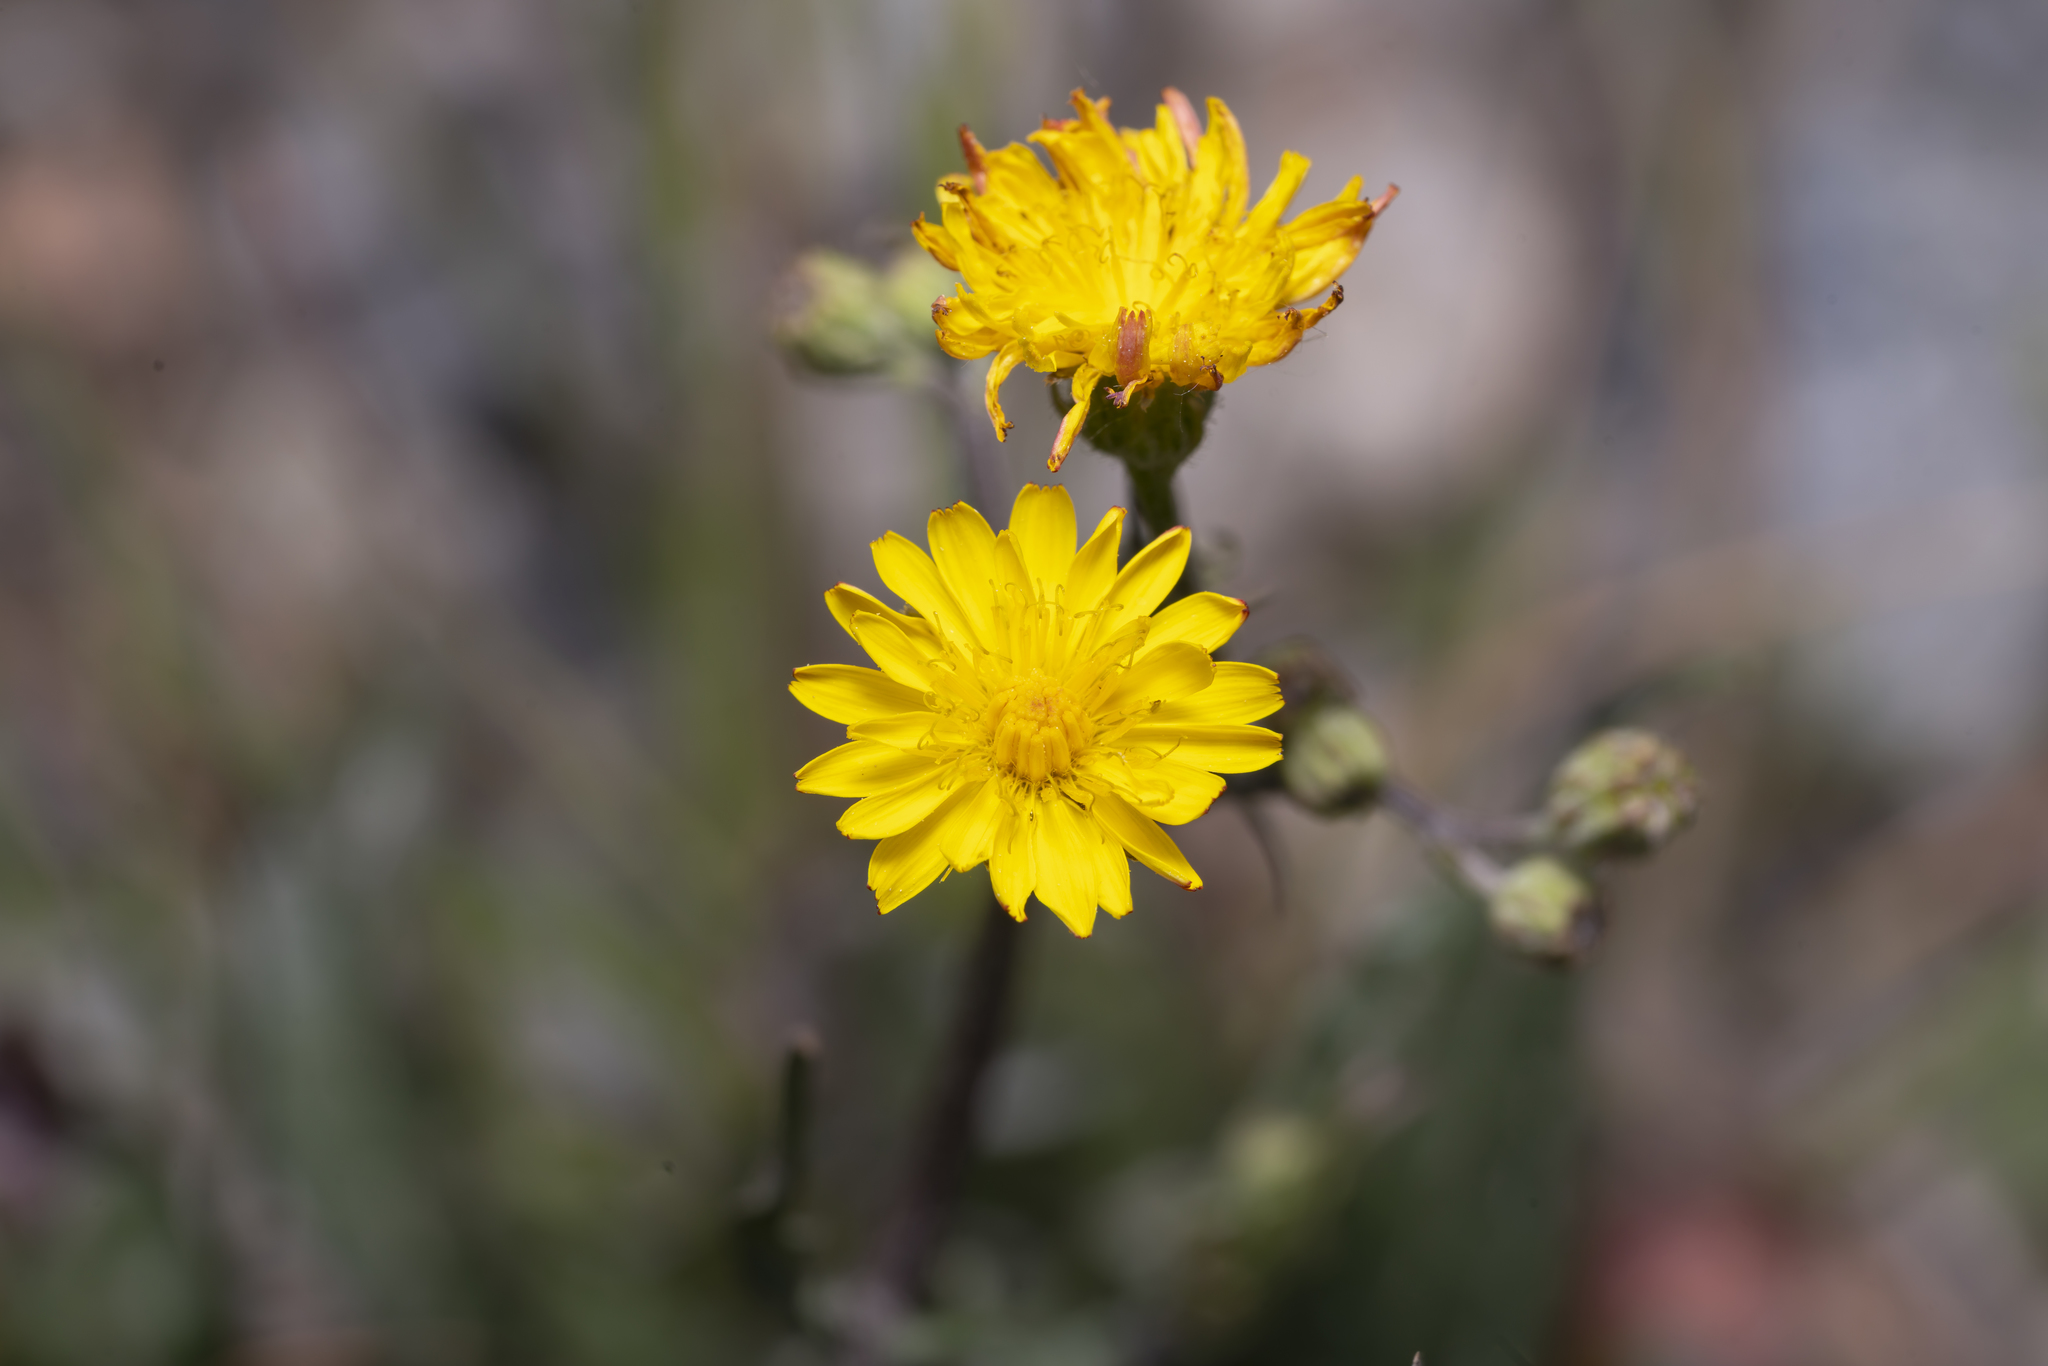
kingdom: Plantae
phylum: Tracheophyta
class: Magnoliopsida
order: Asterales
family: Asteraceae
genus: Crepis
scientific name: Crepis vesicaria
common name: Beaked hawksbeard
